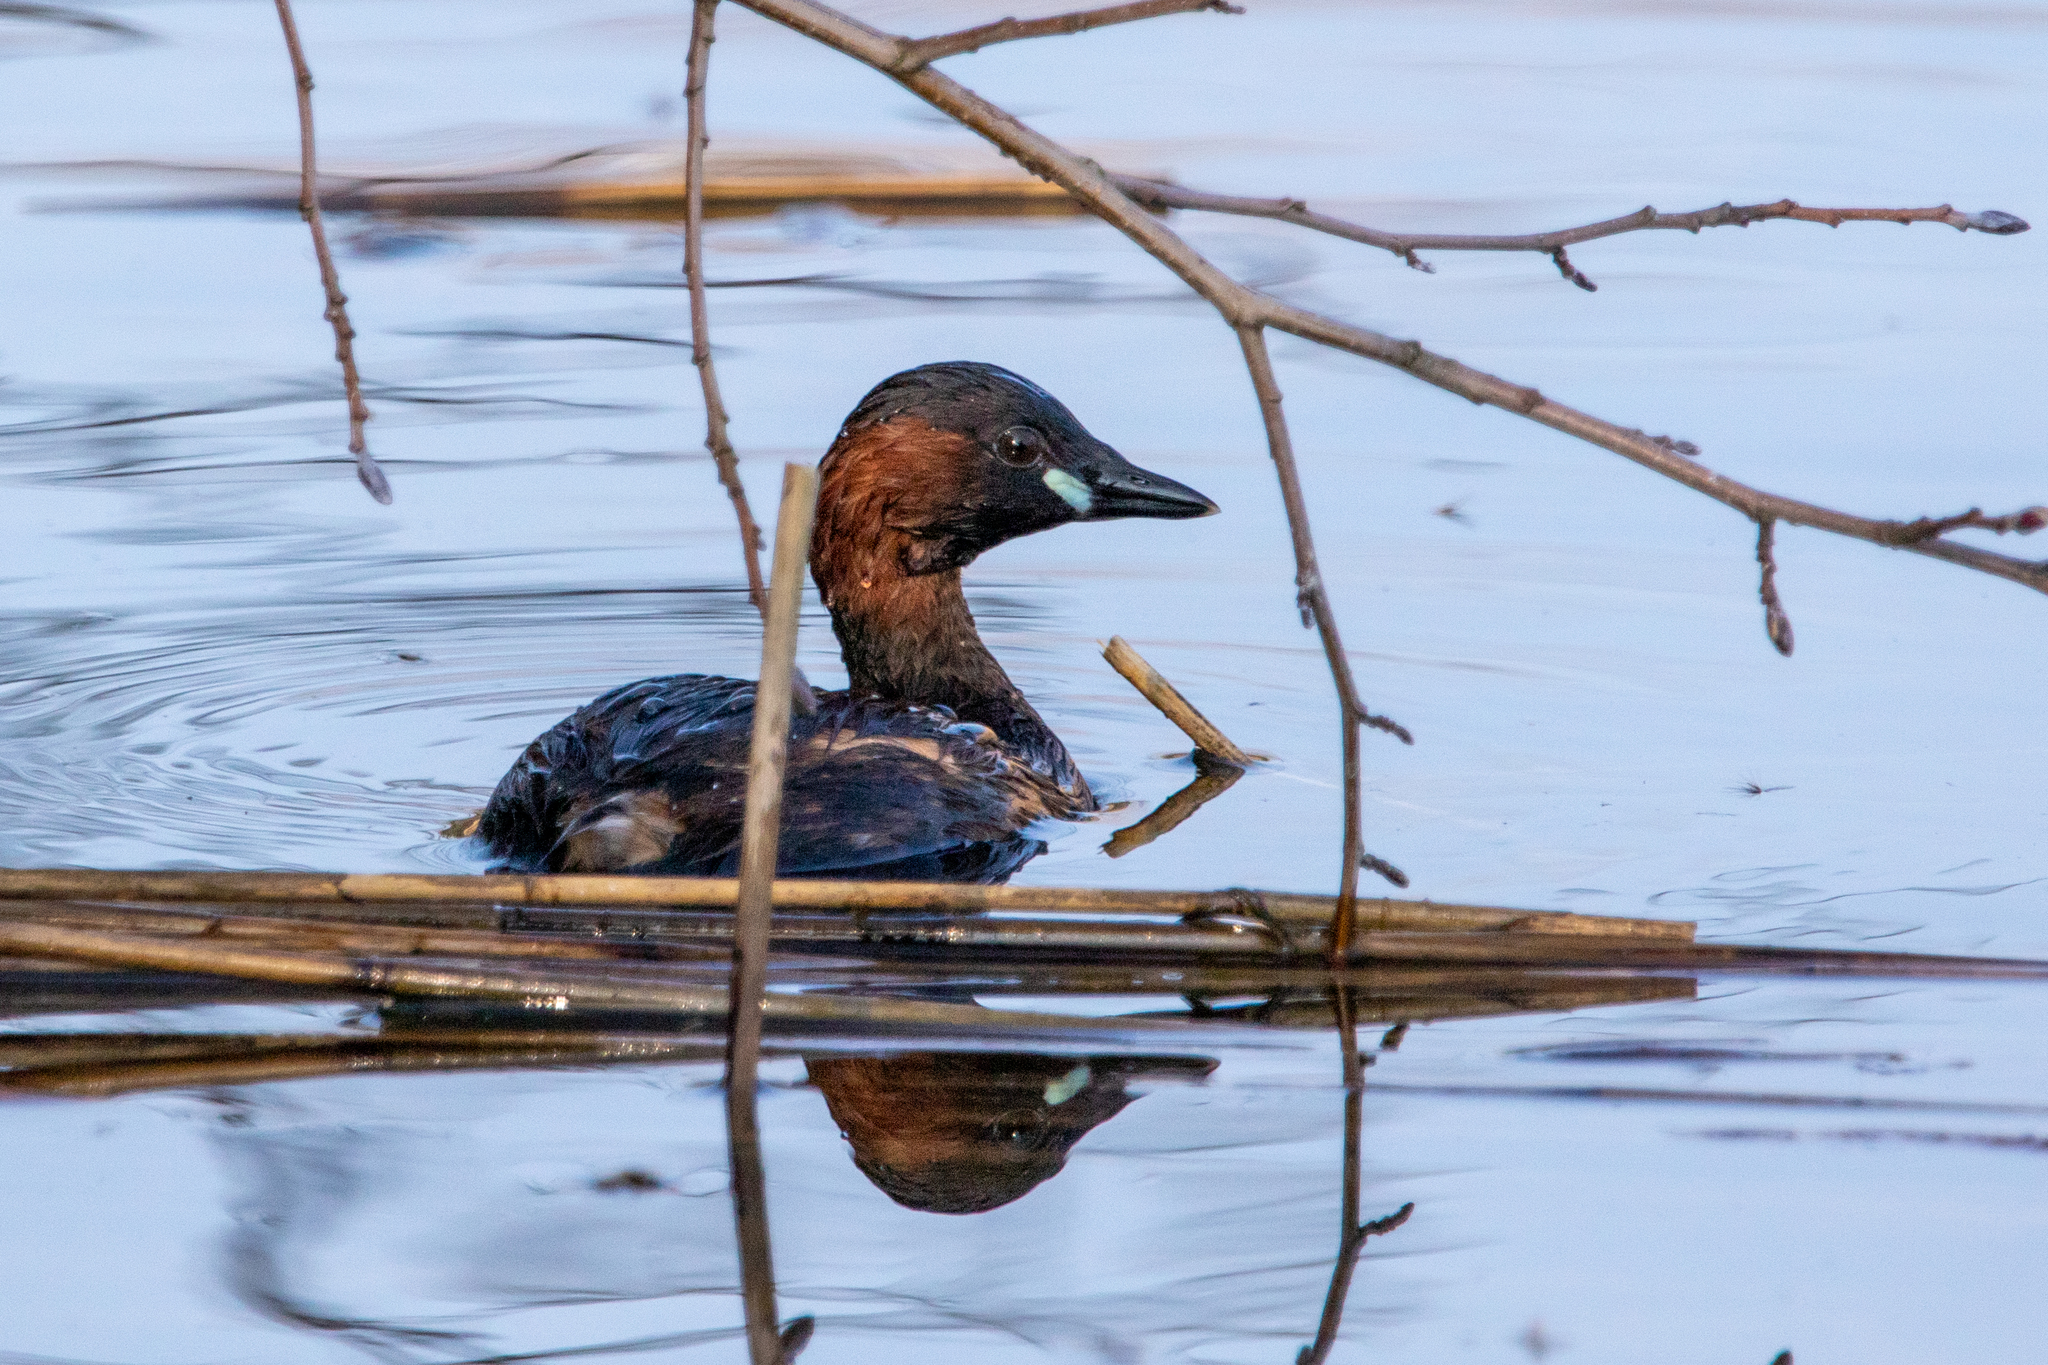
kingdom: Animalia
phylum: Chordata
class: Aves
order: Podicipediformes
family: Podicipedidae
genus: Tachybaptus
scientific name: Tachybaptus ruficollis
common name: Little grebe
